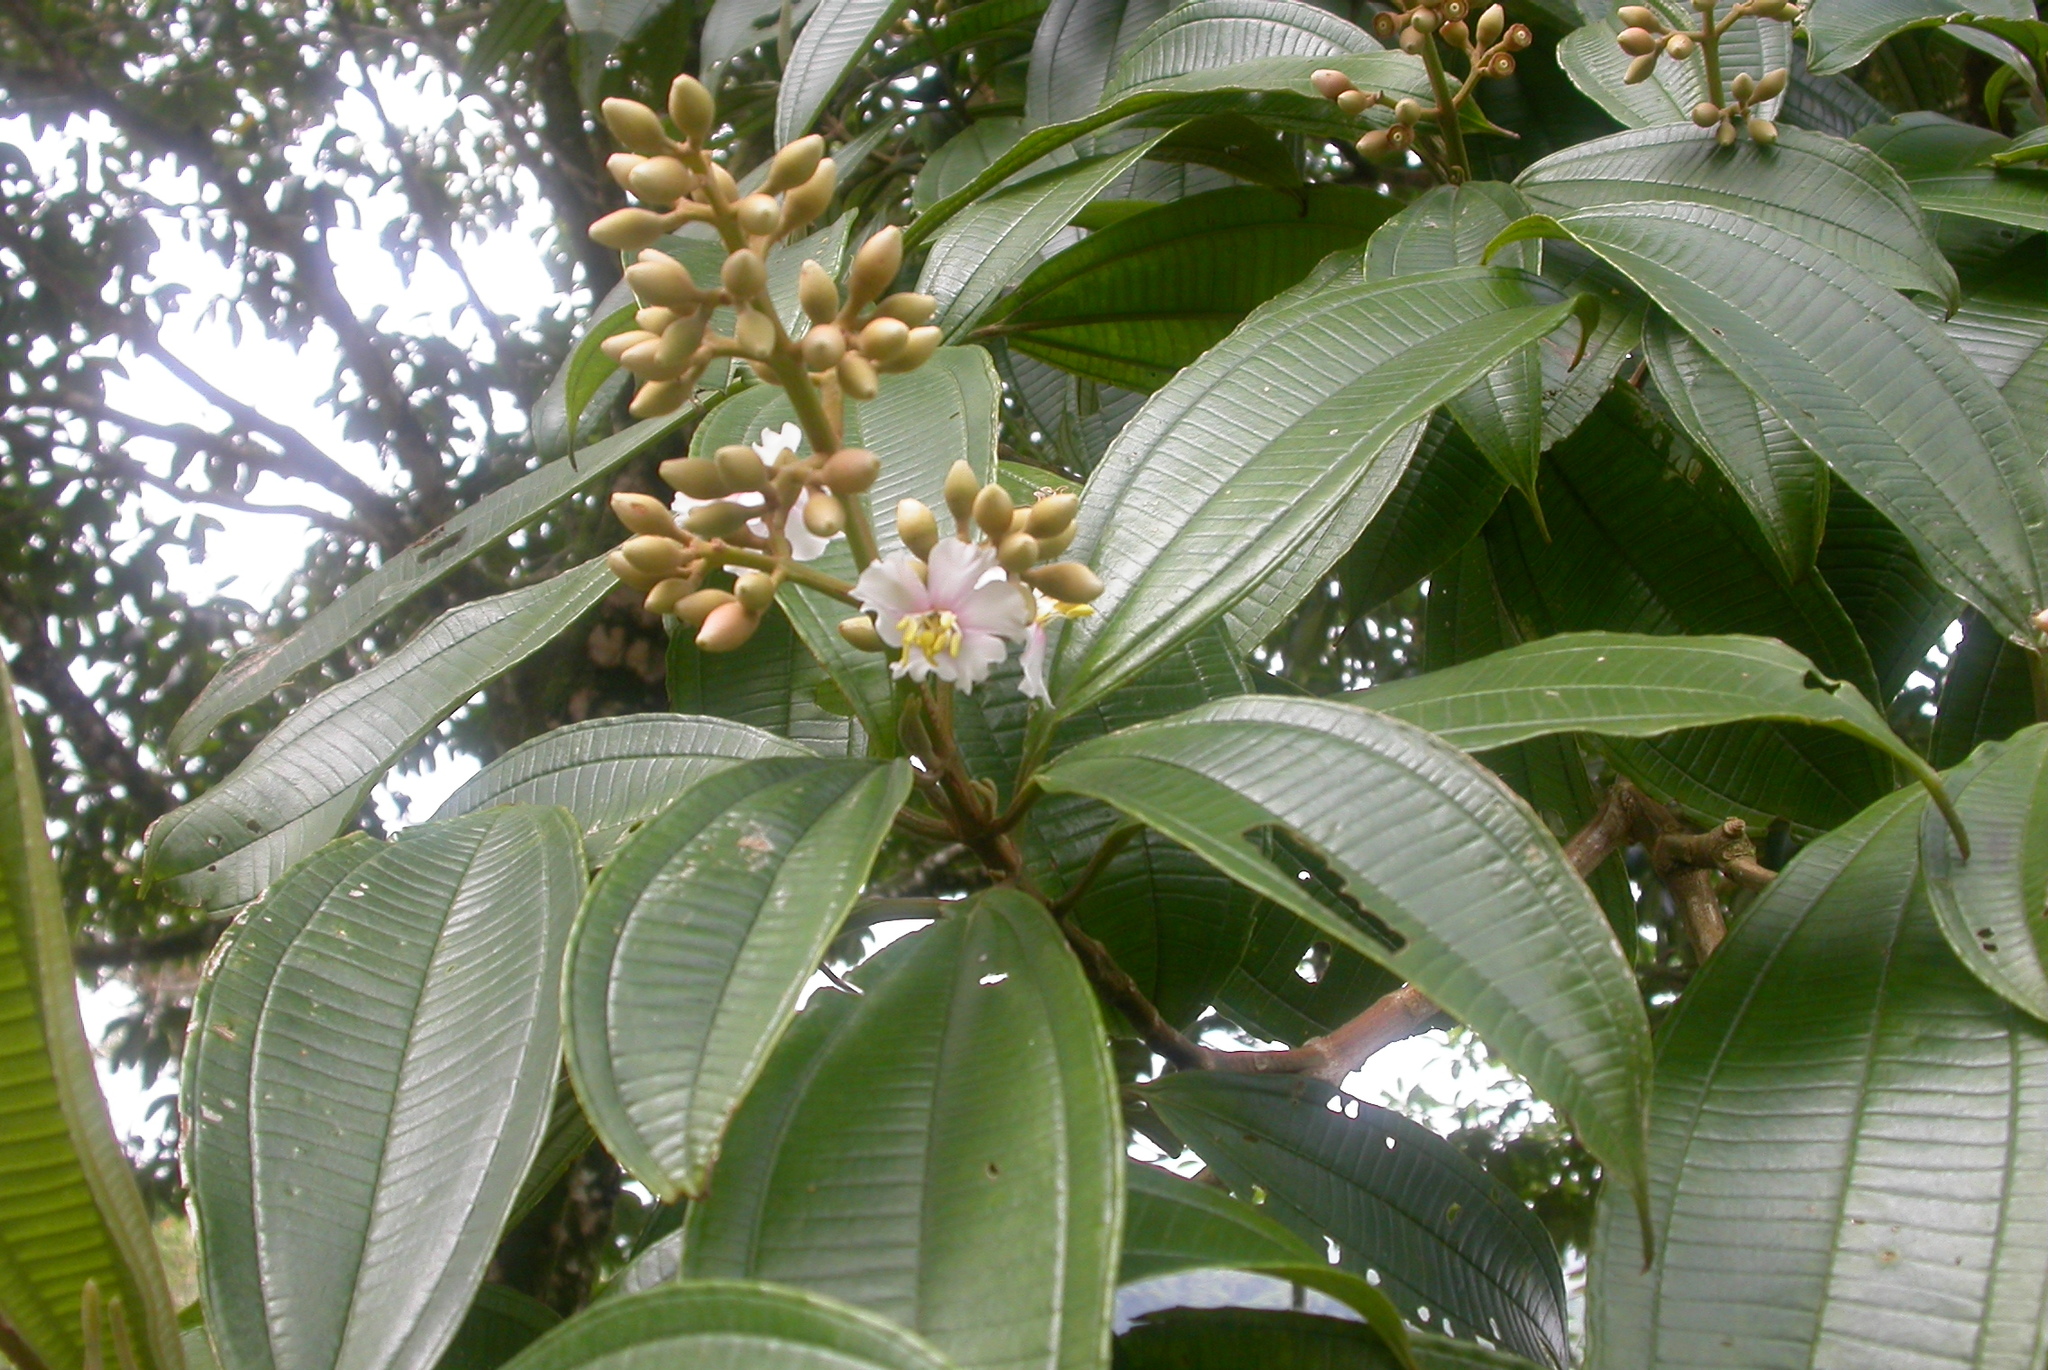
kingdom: Plantae
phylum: Tracheophyta
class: Magnoliopsida
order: Myrtales
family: Melastomataceae
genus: Miconia
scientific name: Miconia conorufescens
